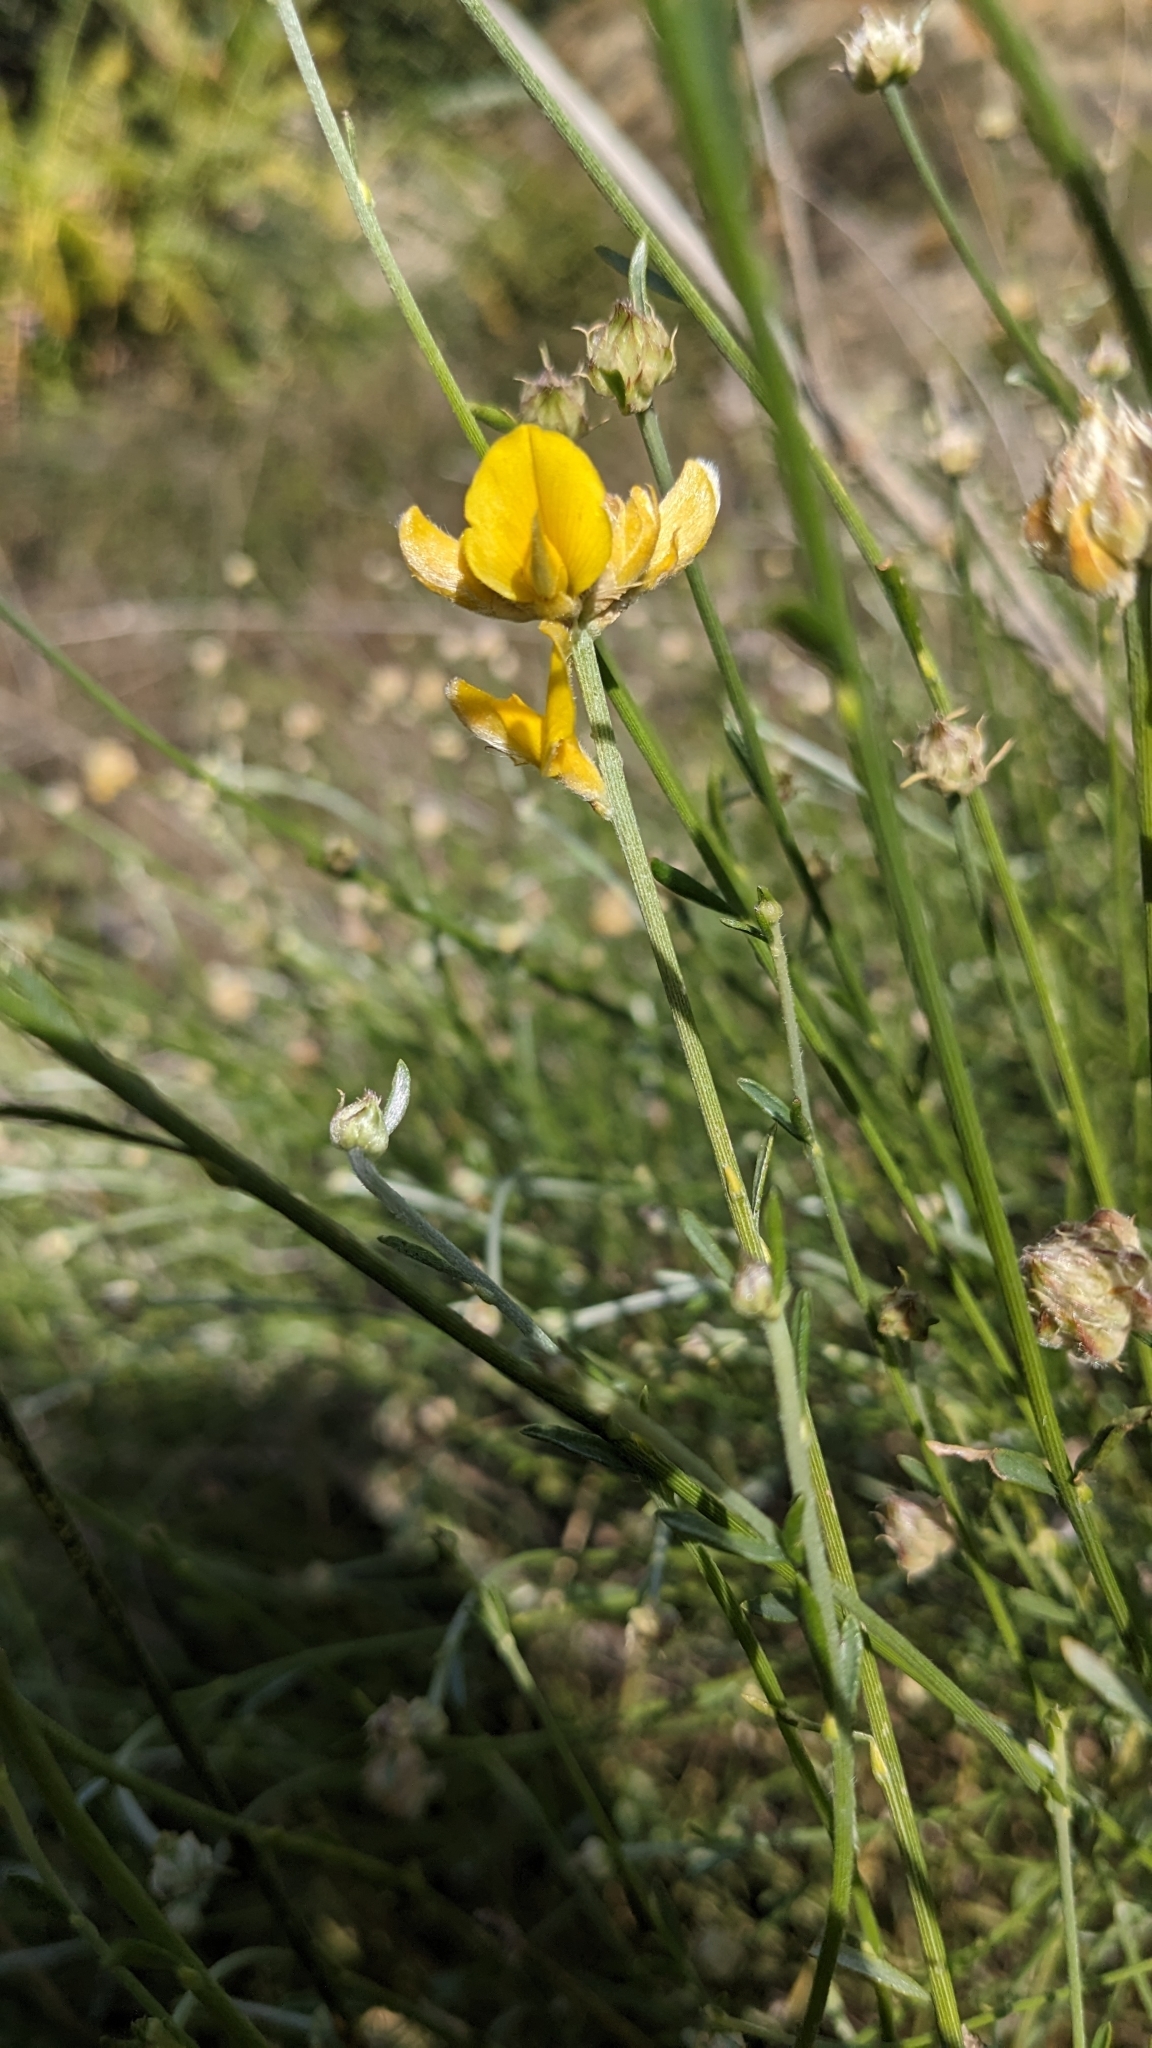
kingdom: Plantae
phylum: Tracheophyta
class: Magnoliopsida
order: Fabales
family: Fabaceae
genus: Genista
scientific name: Genista umbellata
